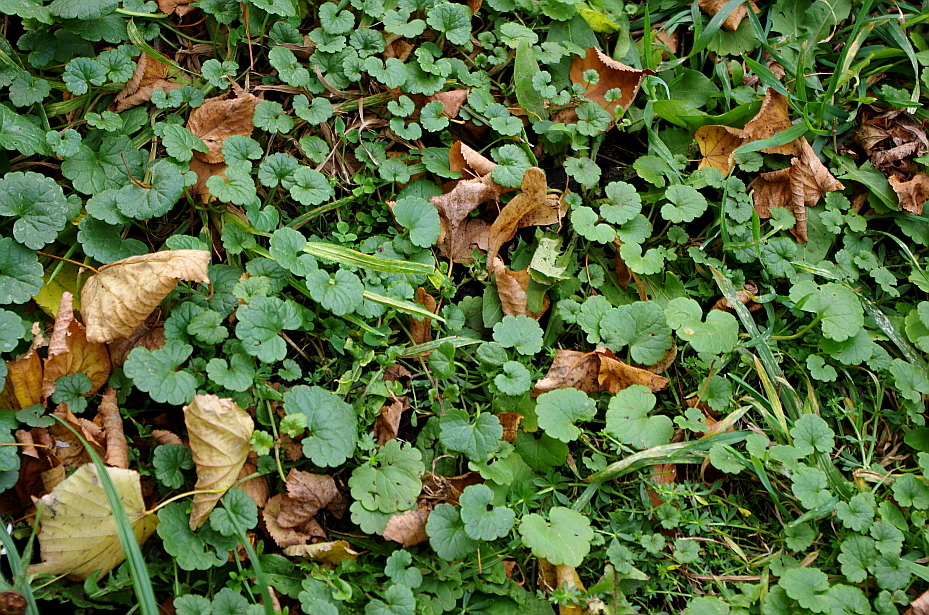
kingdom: Plantae
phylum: Tracheophyta
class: Magnoliopsida
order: Lamiales
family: Lamiaceae
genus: Glechoma
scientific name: Glechoma hederacea
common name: Ground ivy
